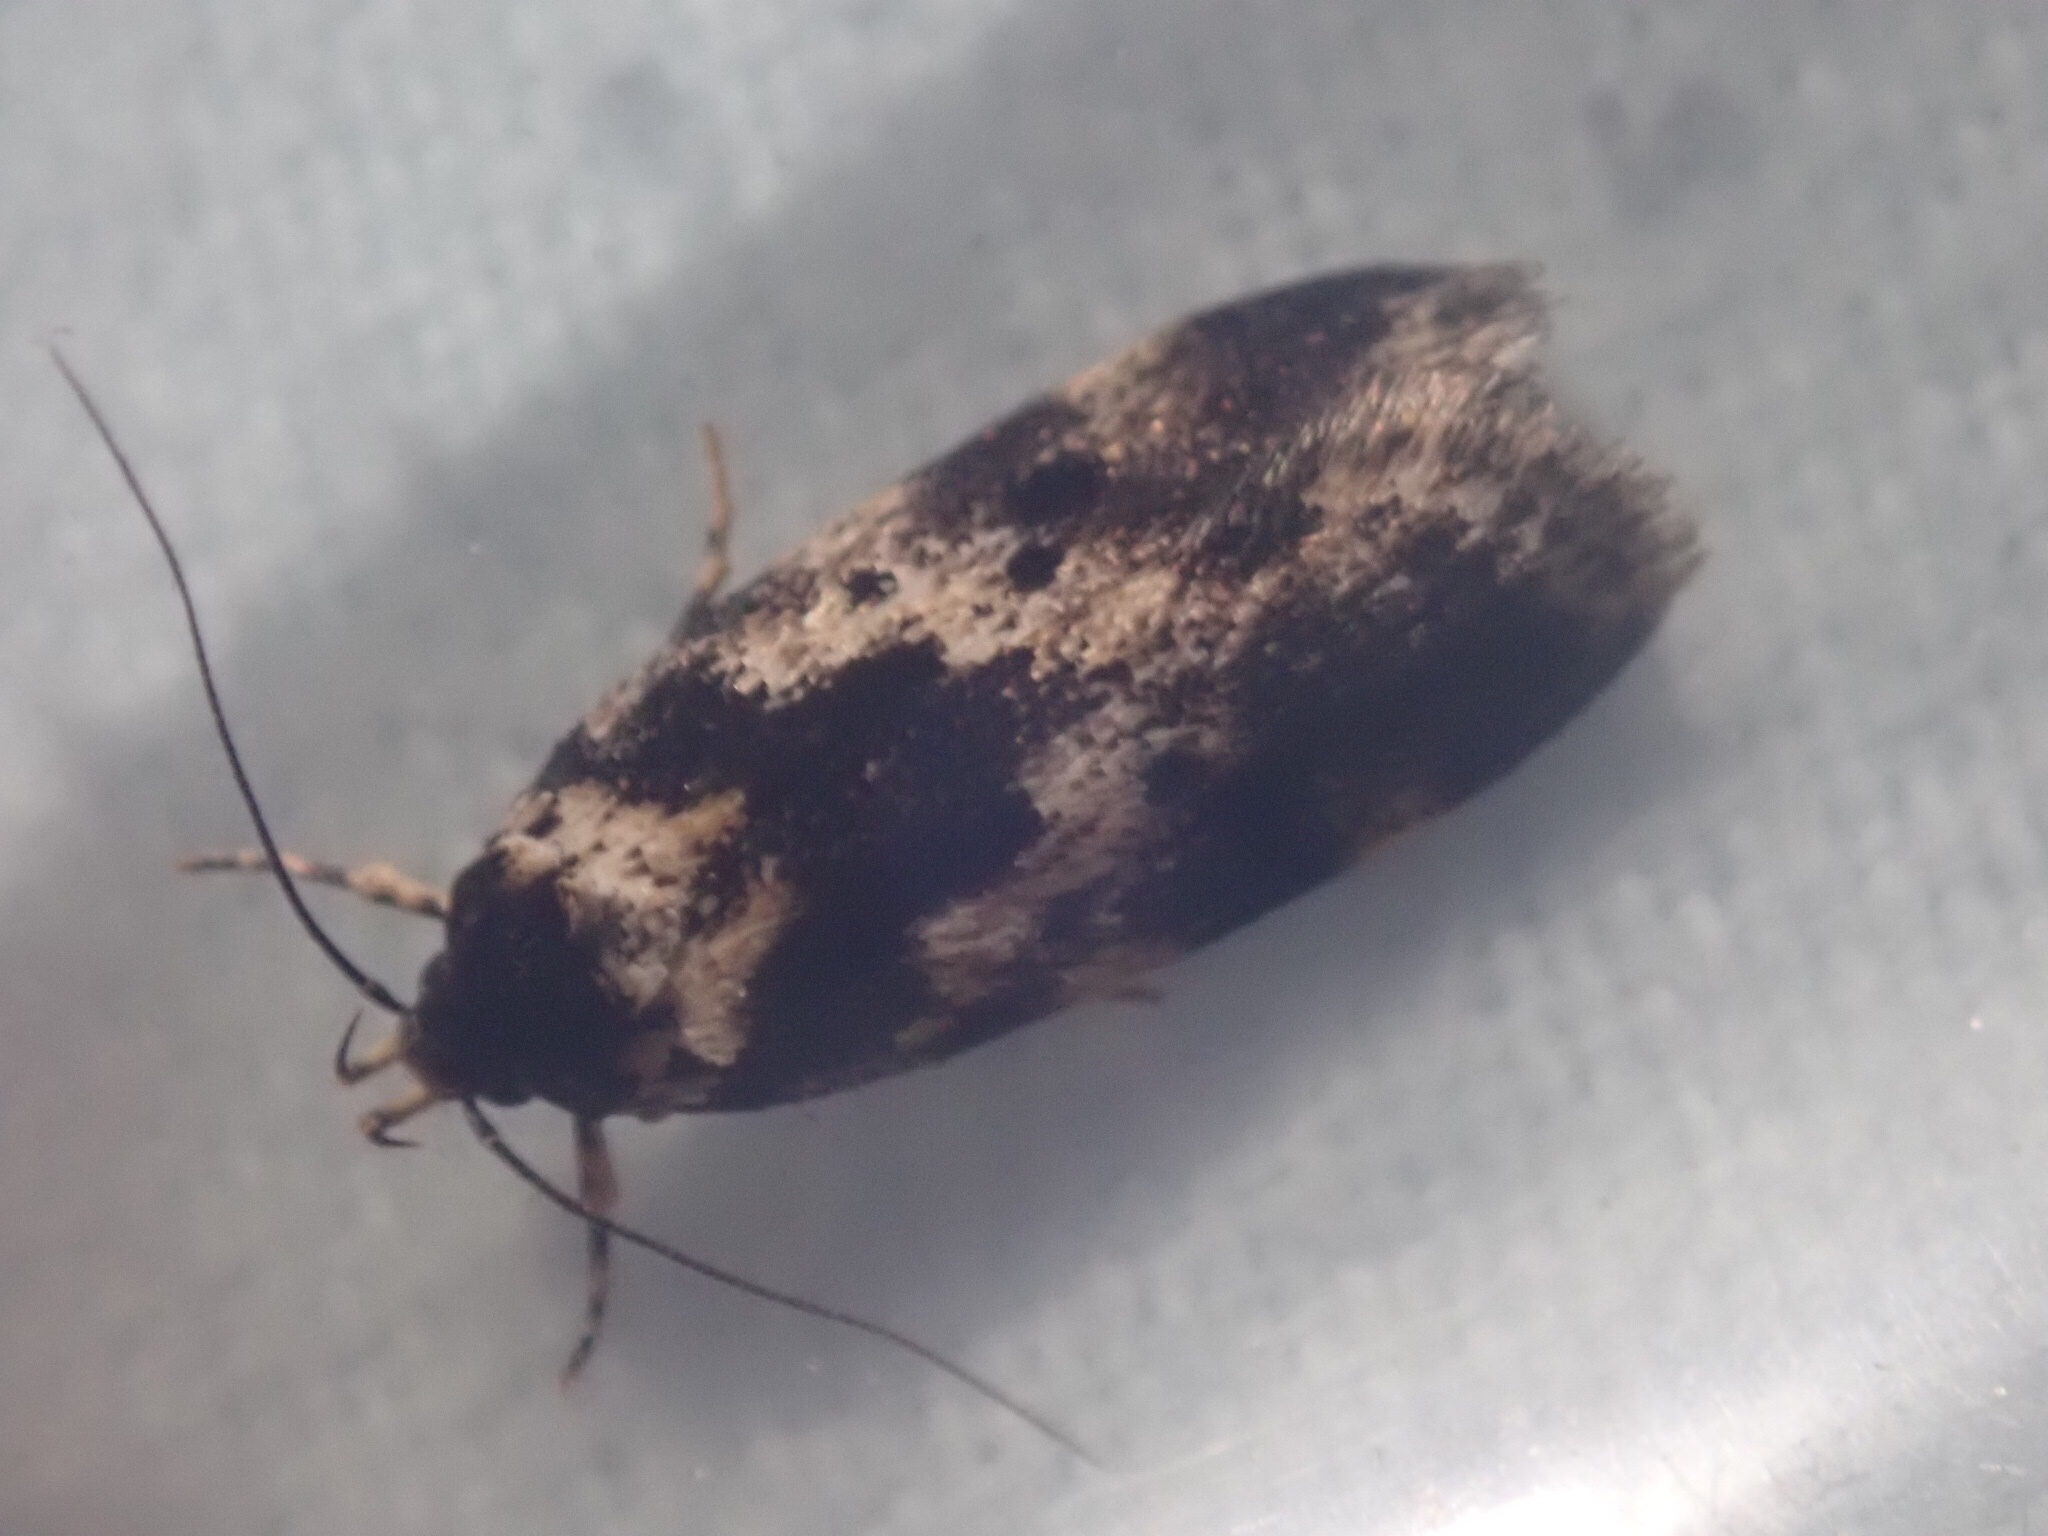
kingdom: Animalia
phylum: Arthropoda
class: Insecta
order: Lepidoptera
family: Oecophoridae
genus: Barea
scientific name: Barea confusella
